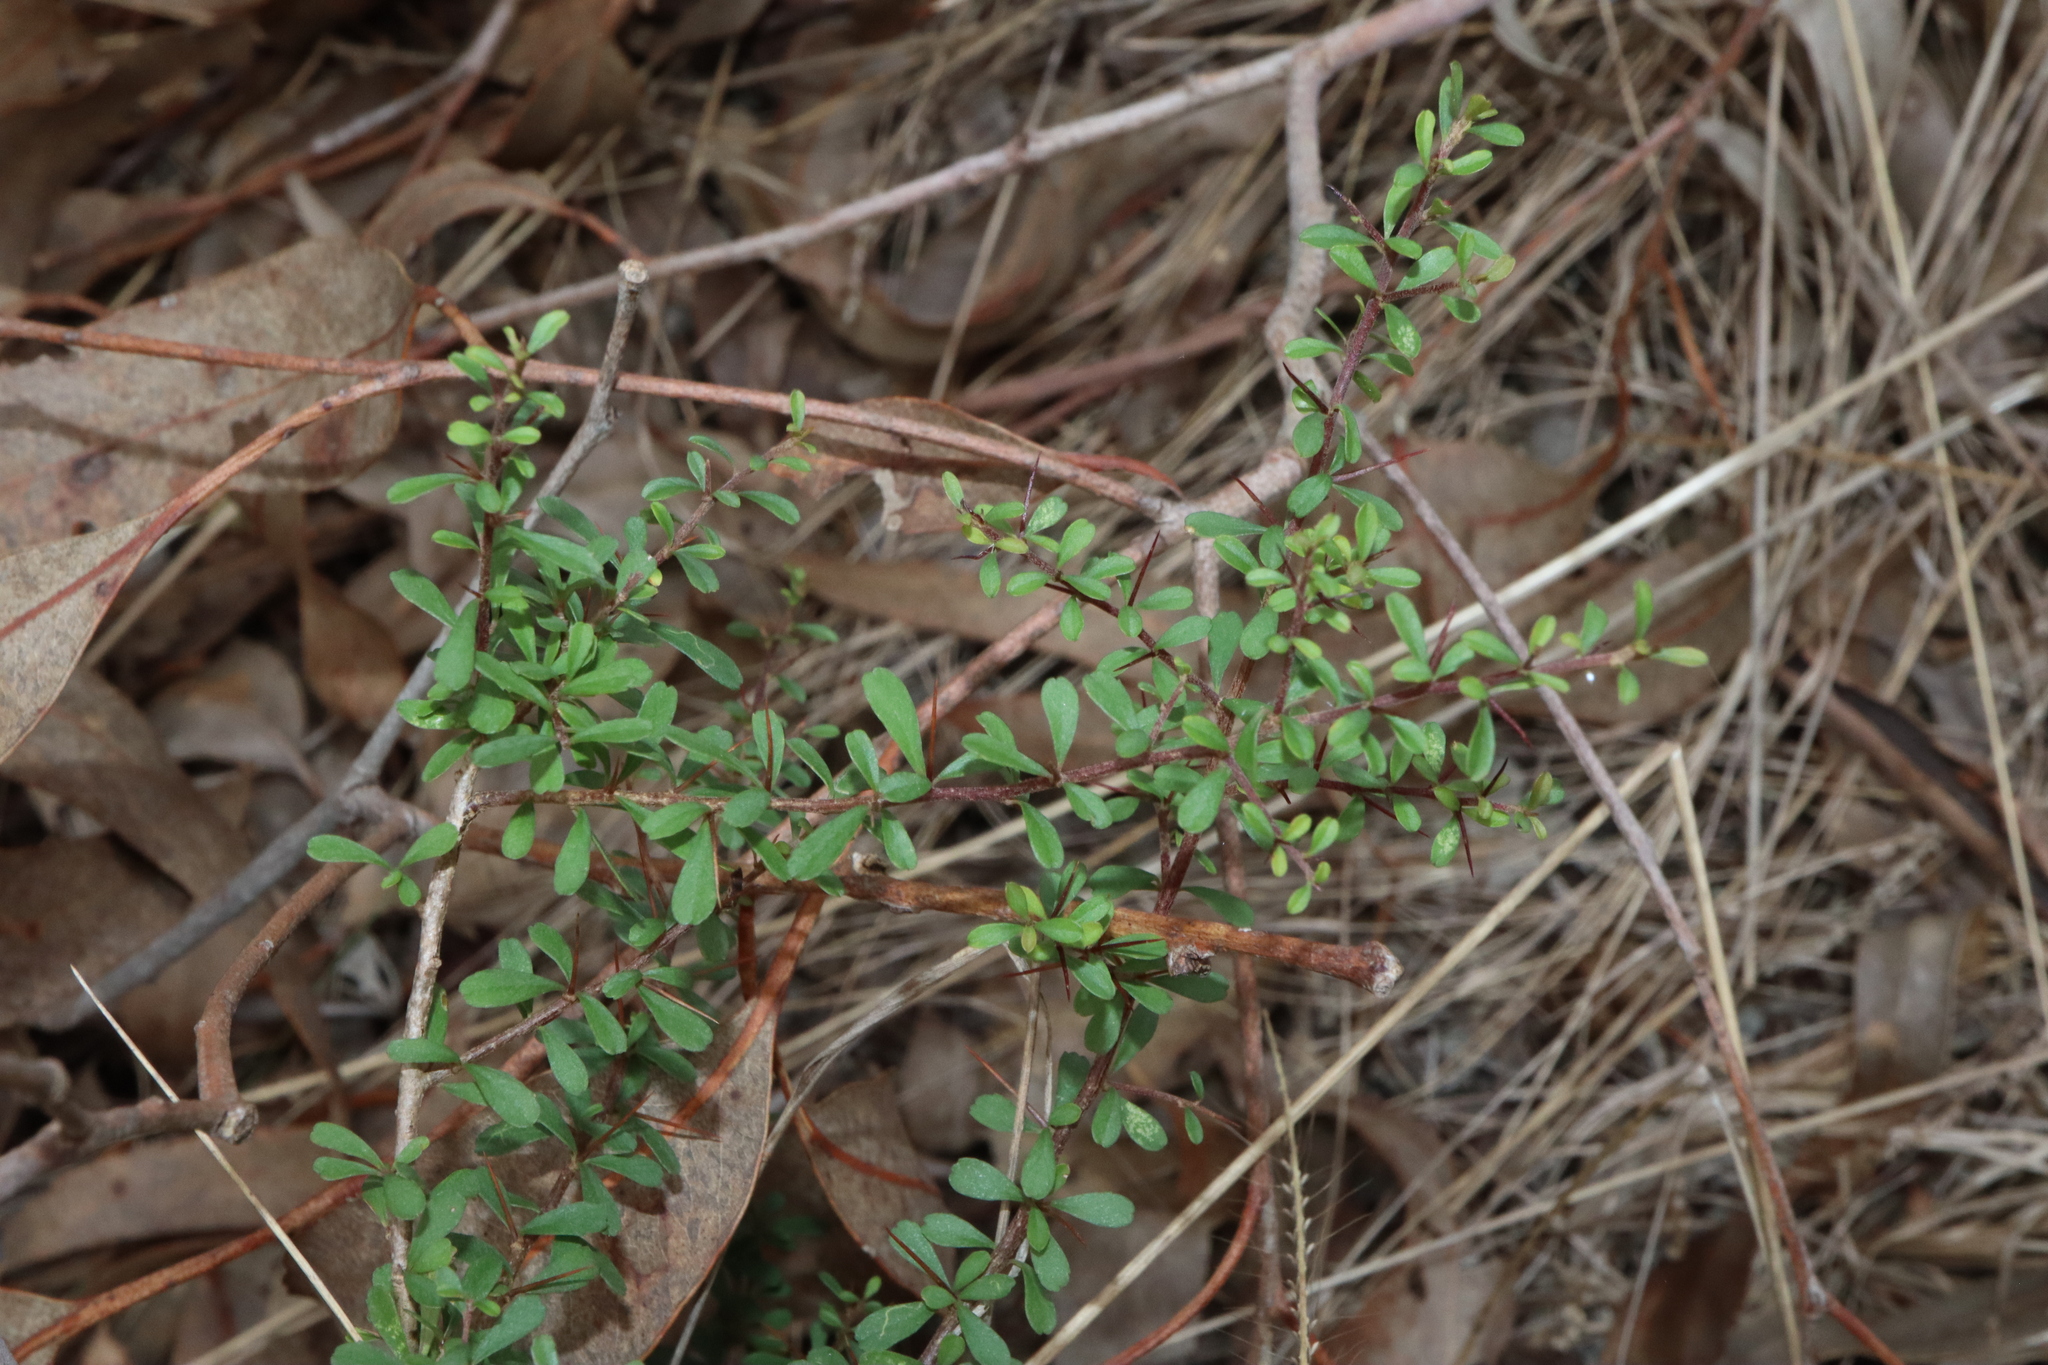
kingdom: Plantae
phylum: Tracheophyta
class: Magnoliopsida
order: Apiales
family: Pittosporaceae
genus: Bursaria
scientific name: Bursaria spinosa
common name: Australian blackthorn
